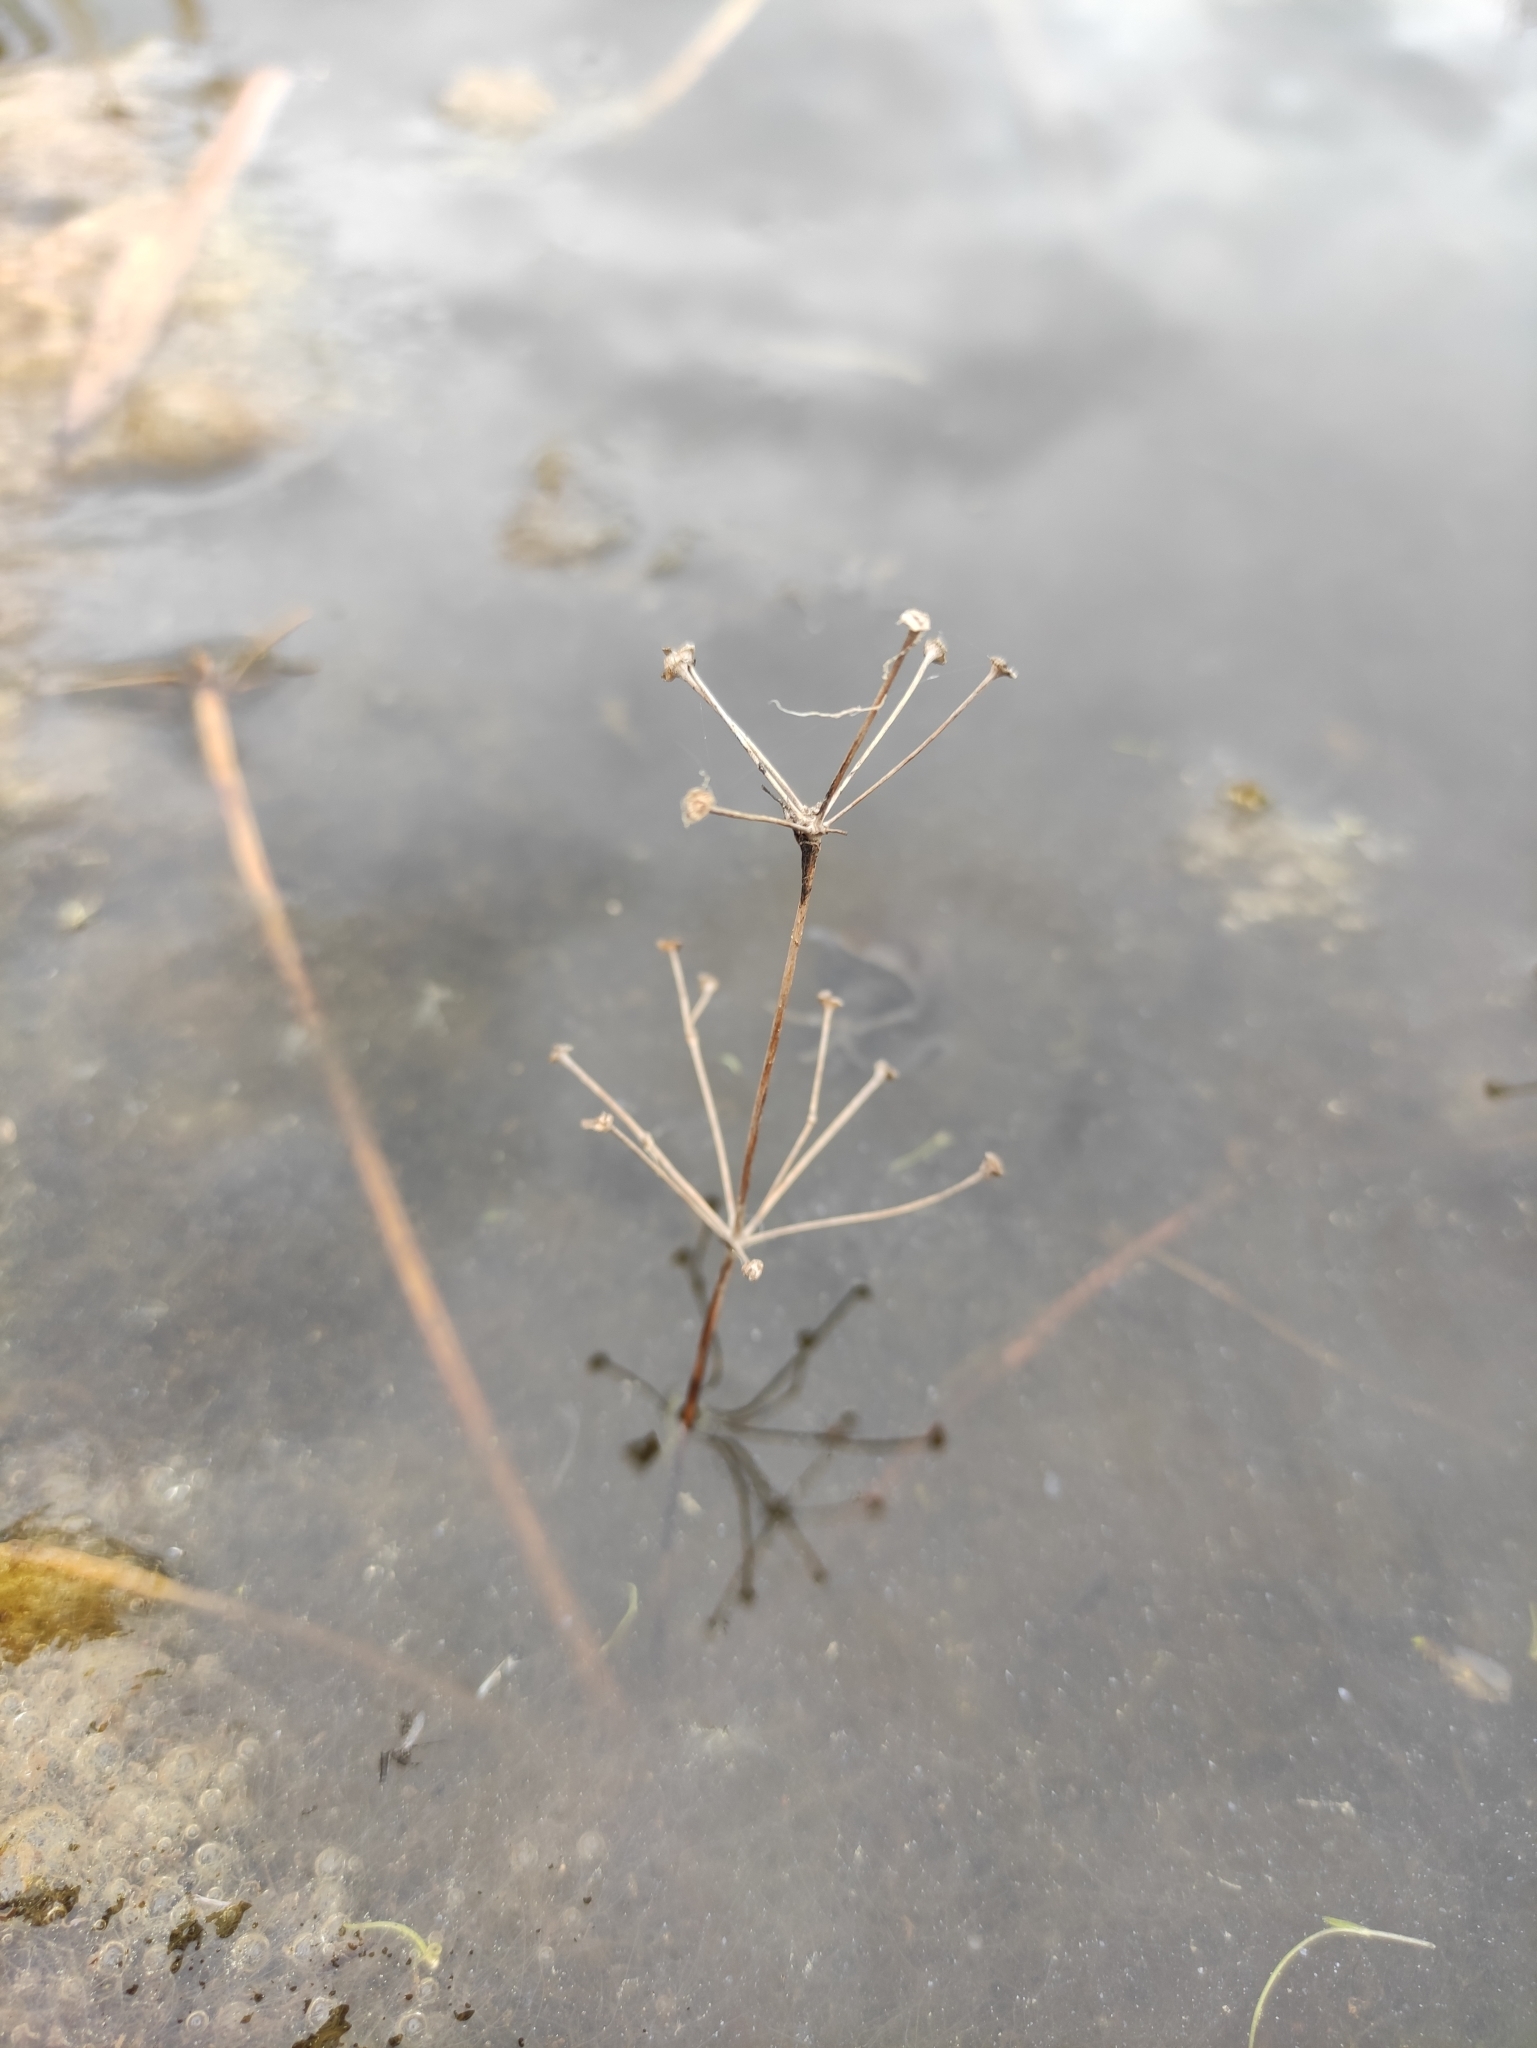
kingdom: Plantae
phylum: Tracheophyta
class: Liliopsida
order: Alismatales
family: Alismataceae
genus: Alisma
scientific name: Alisma plantago-aquatica
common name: Water-plantain
